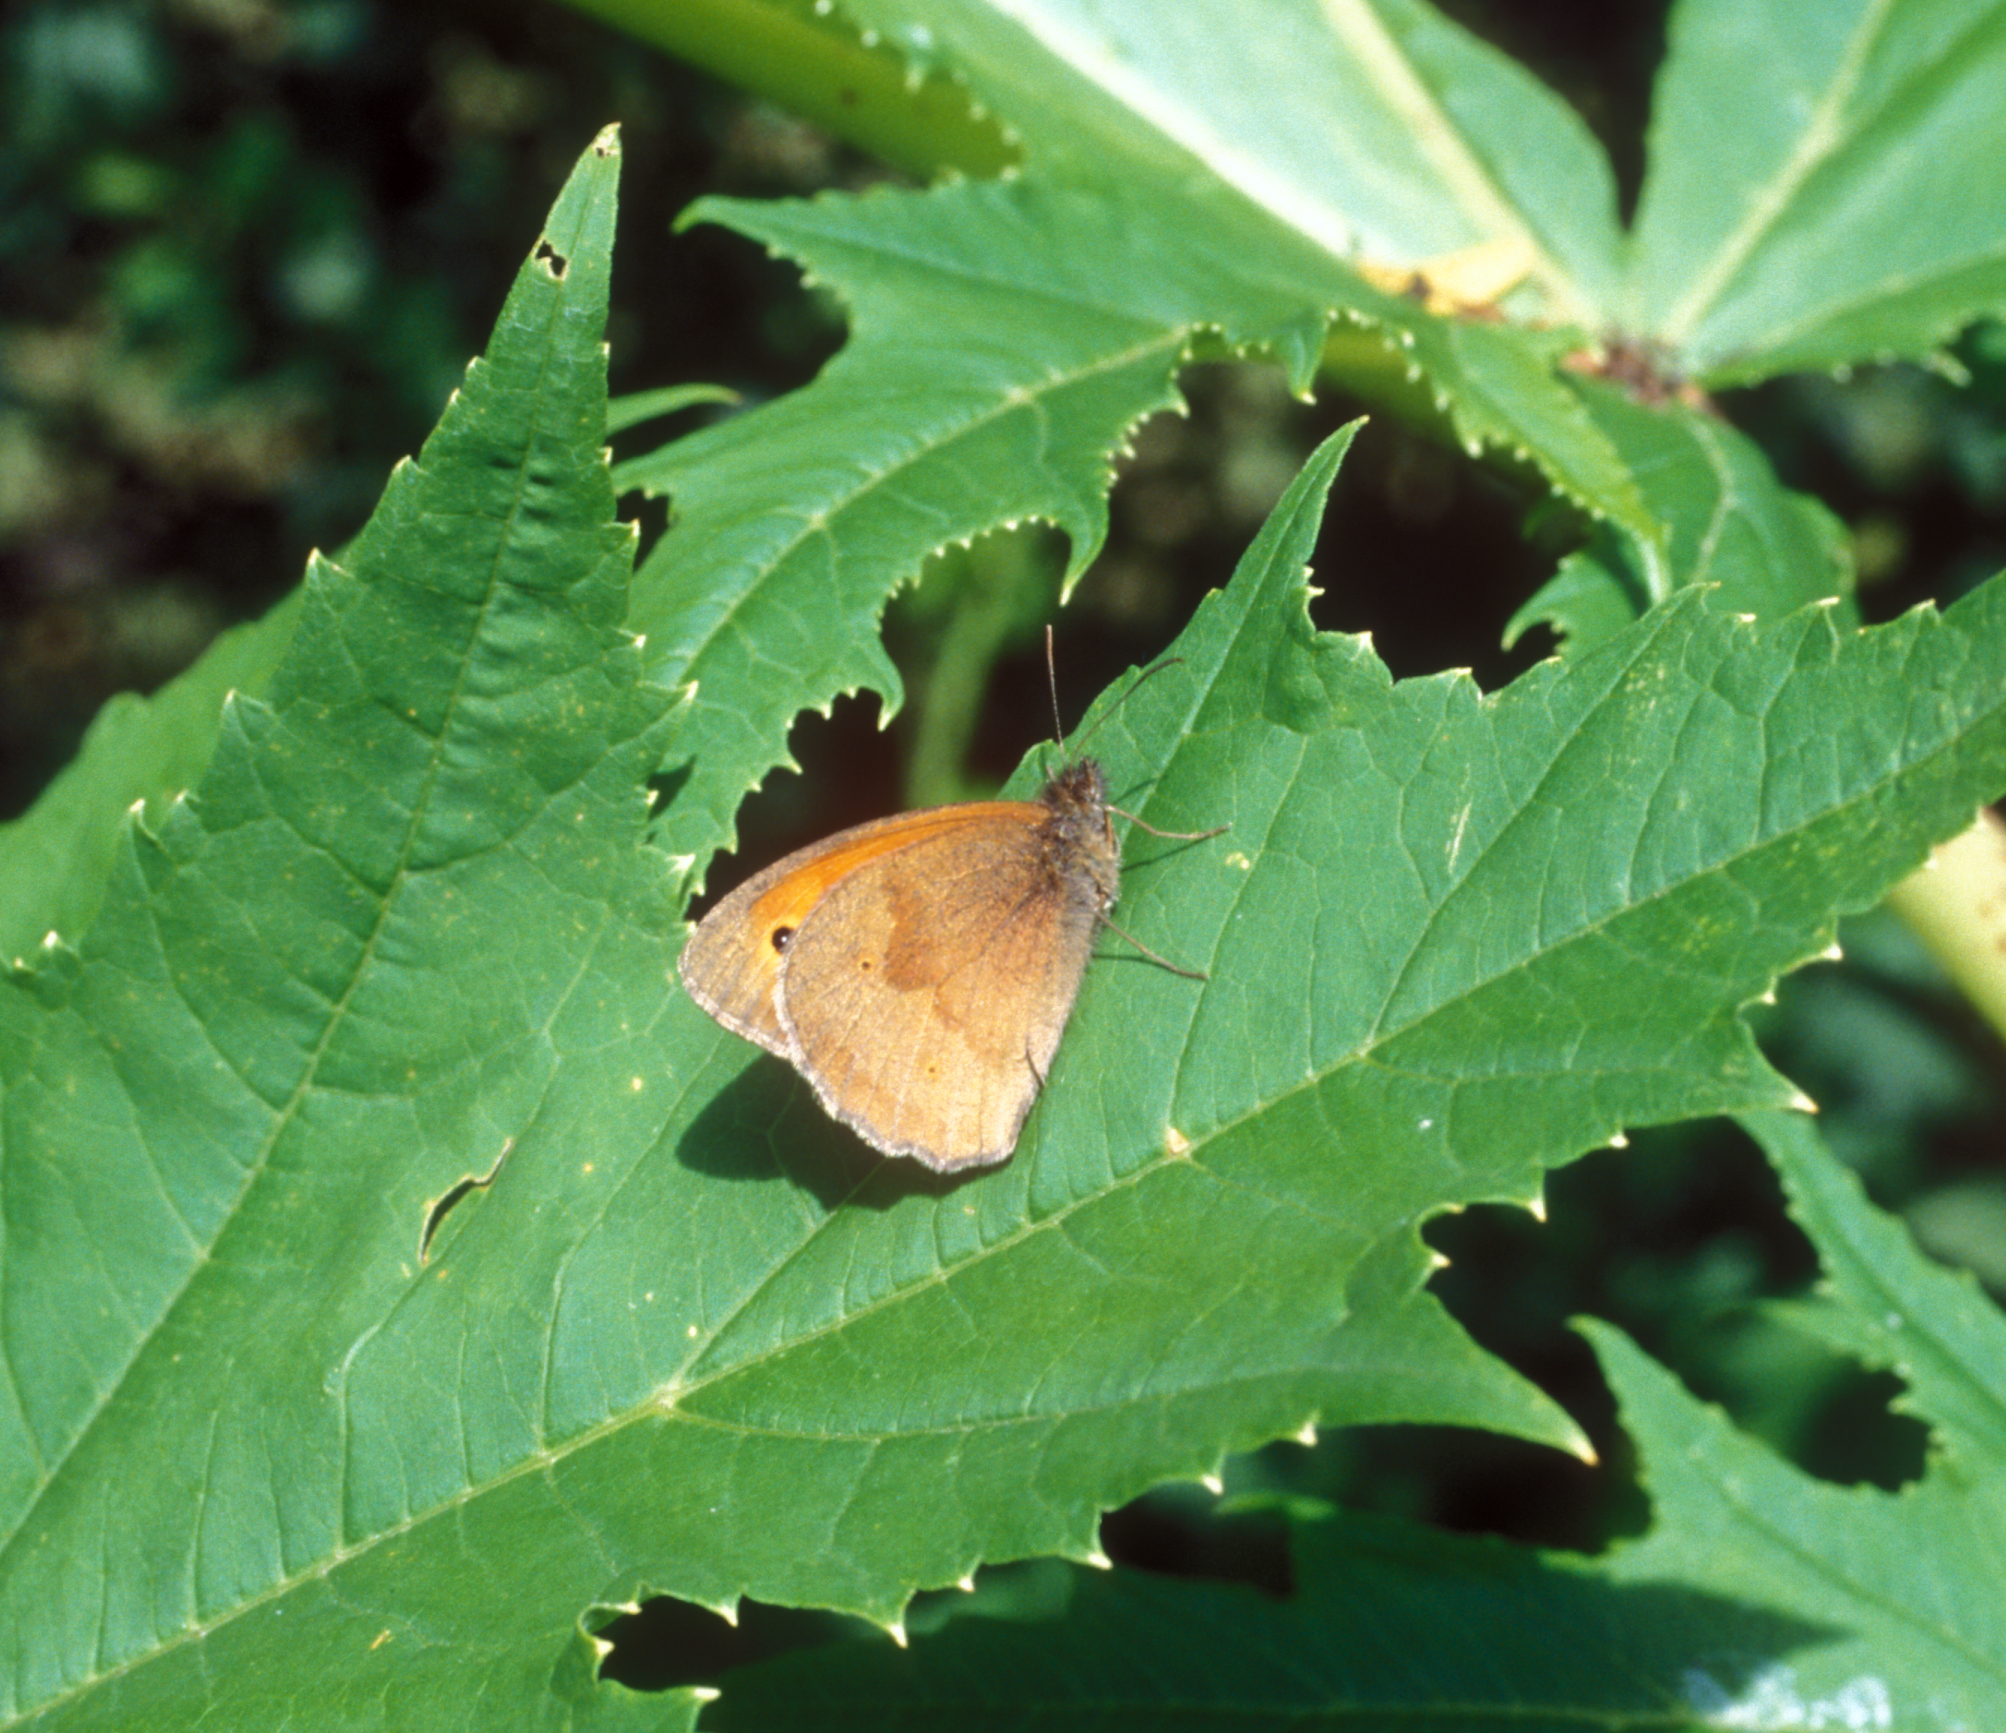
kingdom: Animalia
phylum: Arthropoda
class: Insecta
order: Lepidoptera
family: Nymphalidae
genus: Maniola
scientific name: Maniola jurtina
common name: Meadow brown
